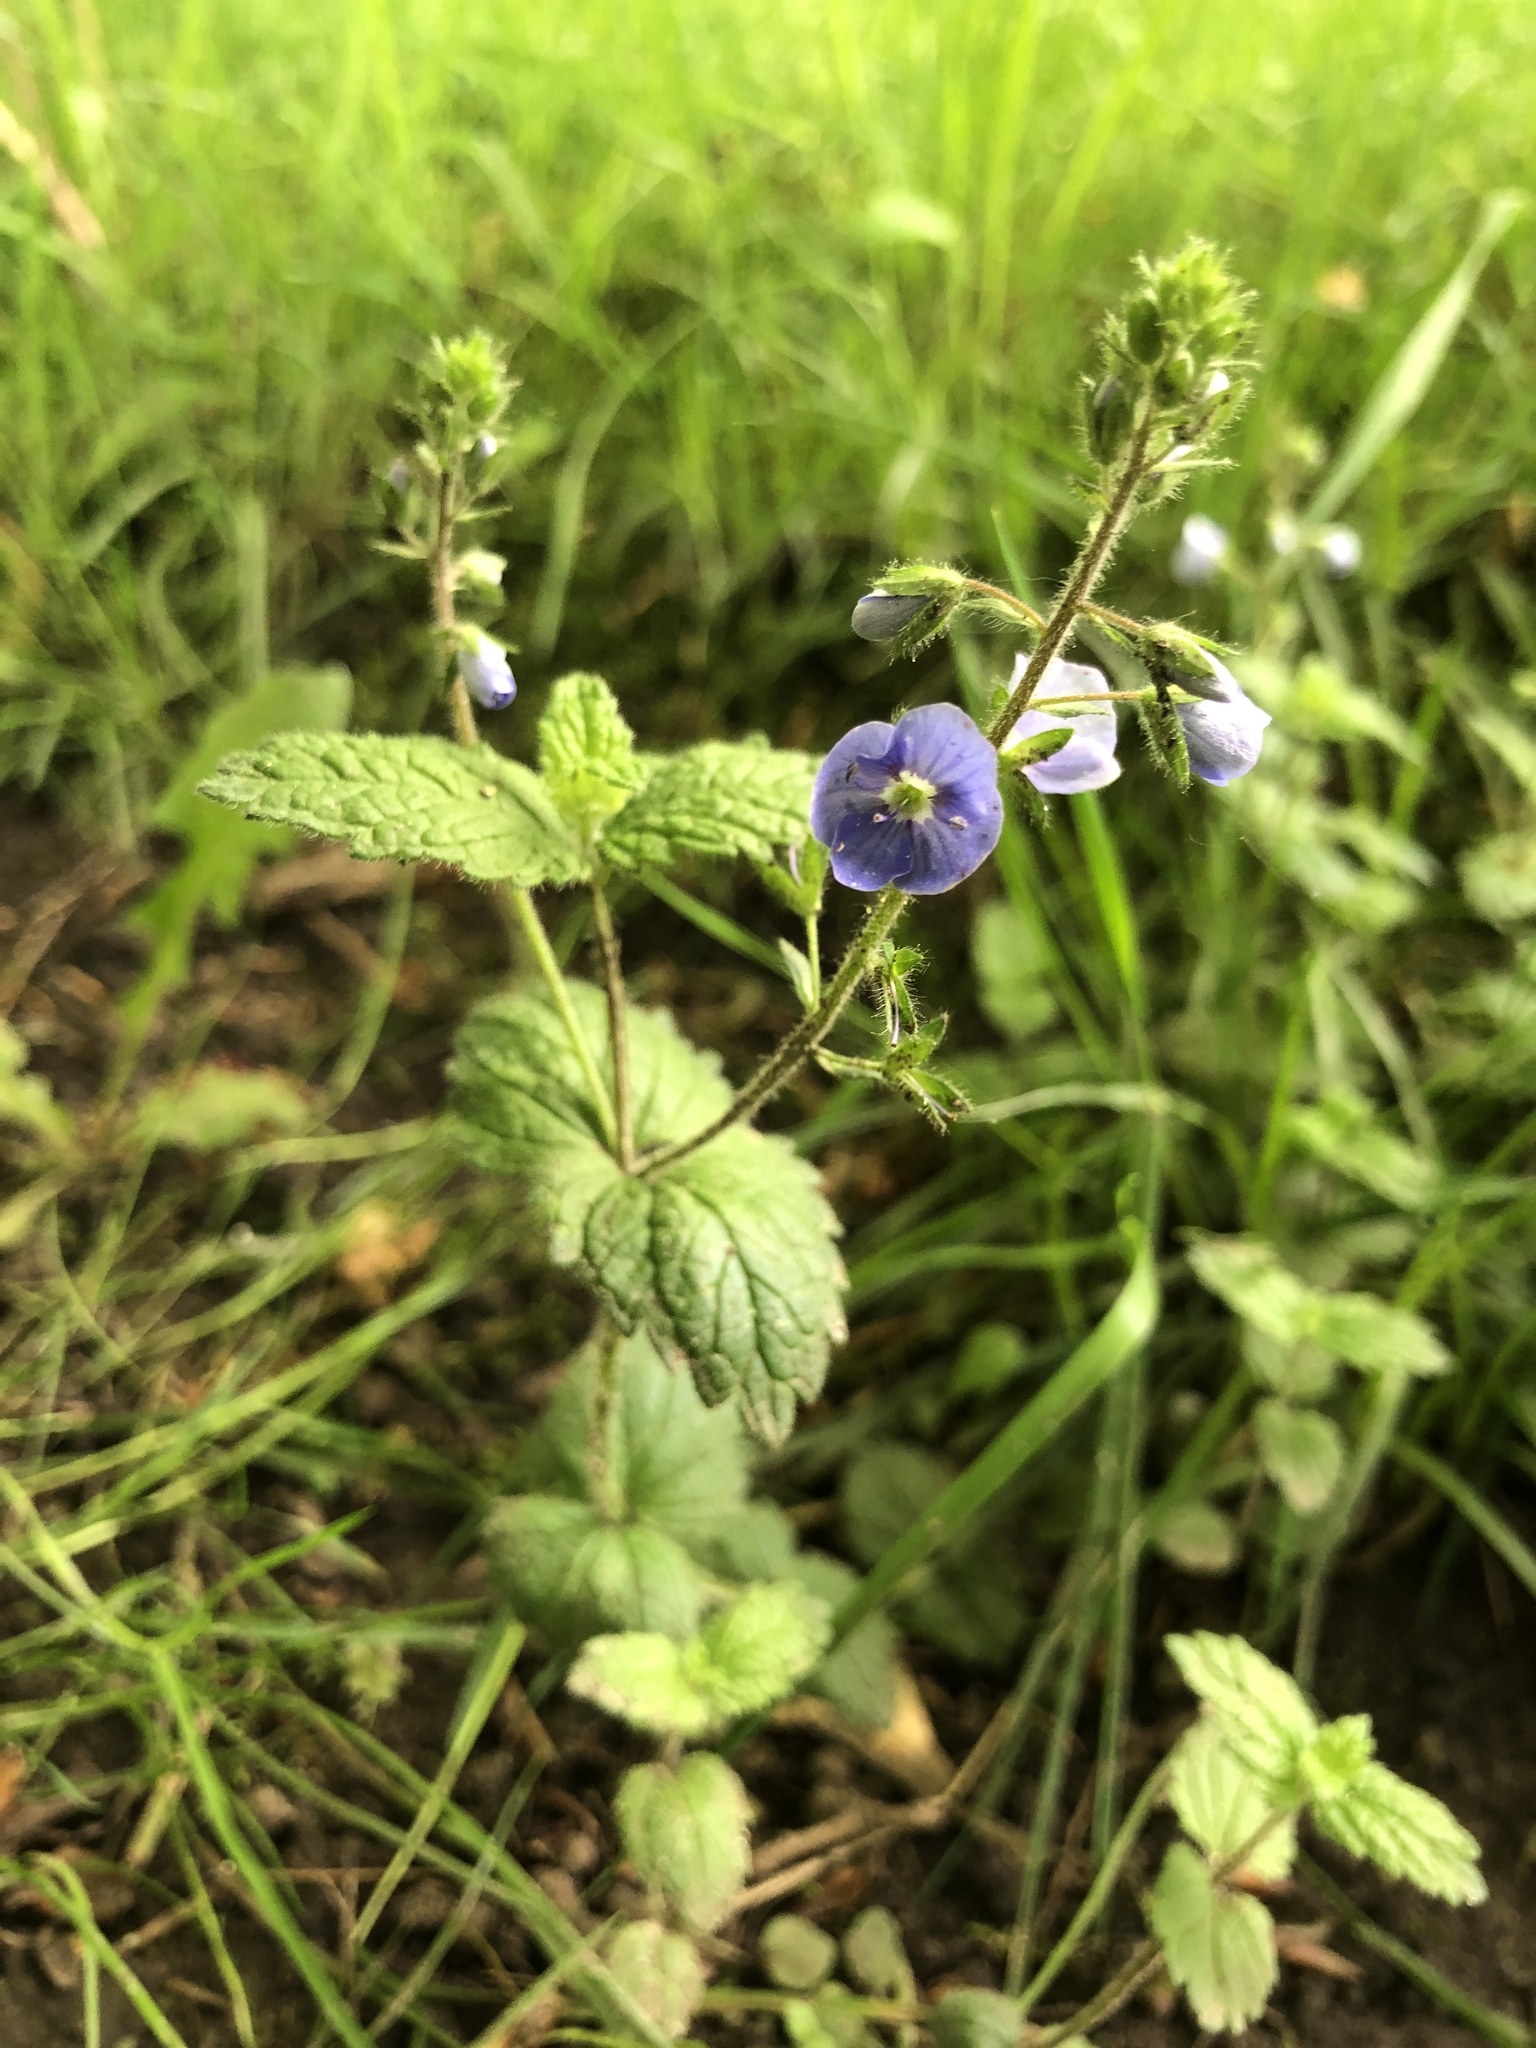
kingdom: Plantae
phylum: Tracheophyta
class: Magnoliopsida
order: Lamiales
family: Plantaginaceae
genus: Veronica
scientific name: Veronica chamaedrys
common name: Germander speedwell
